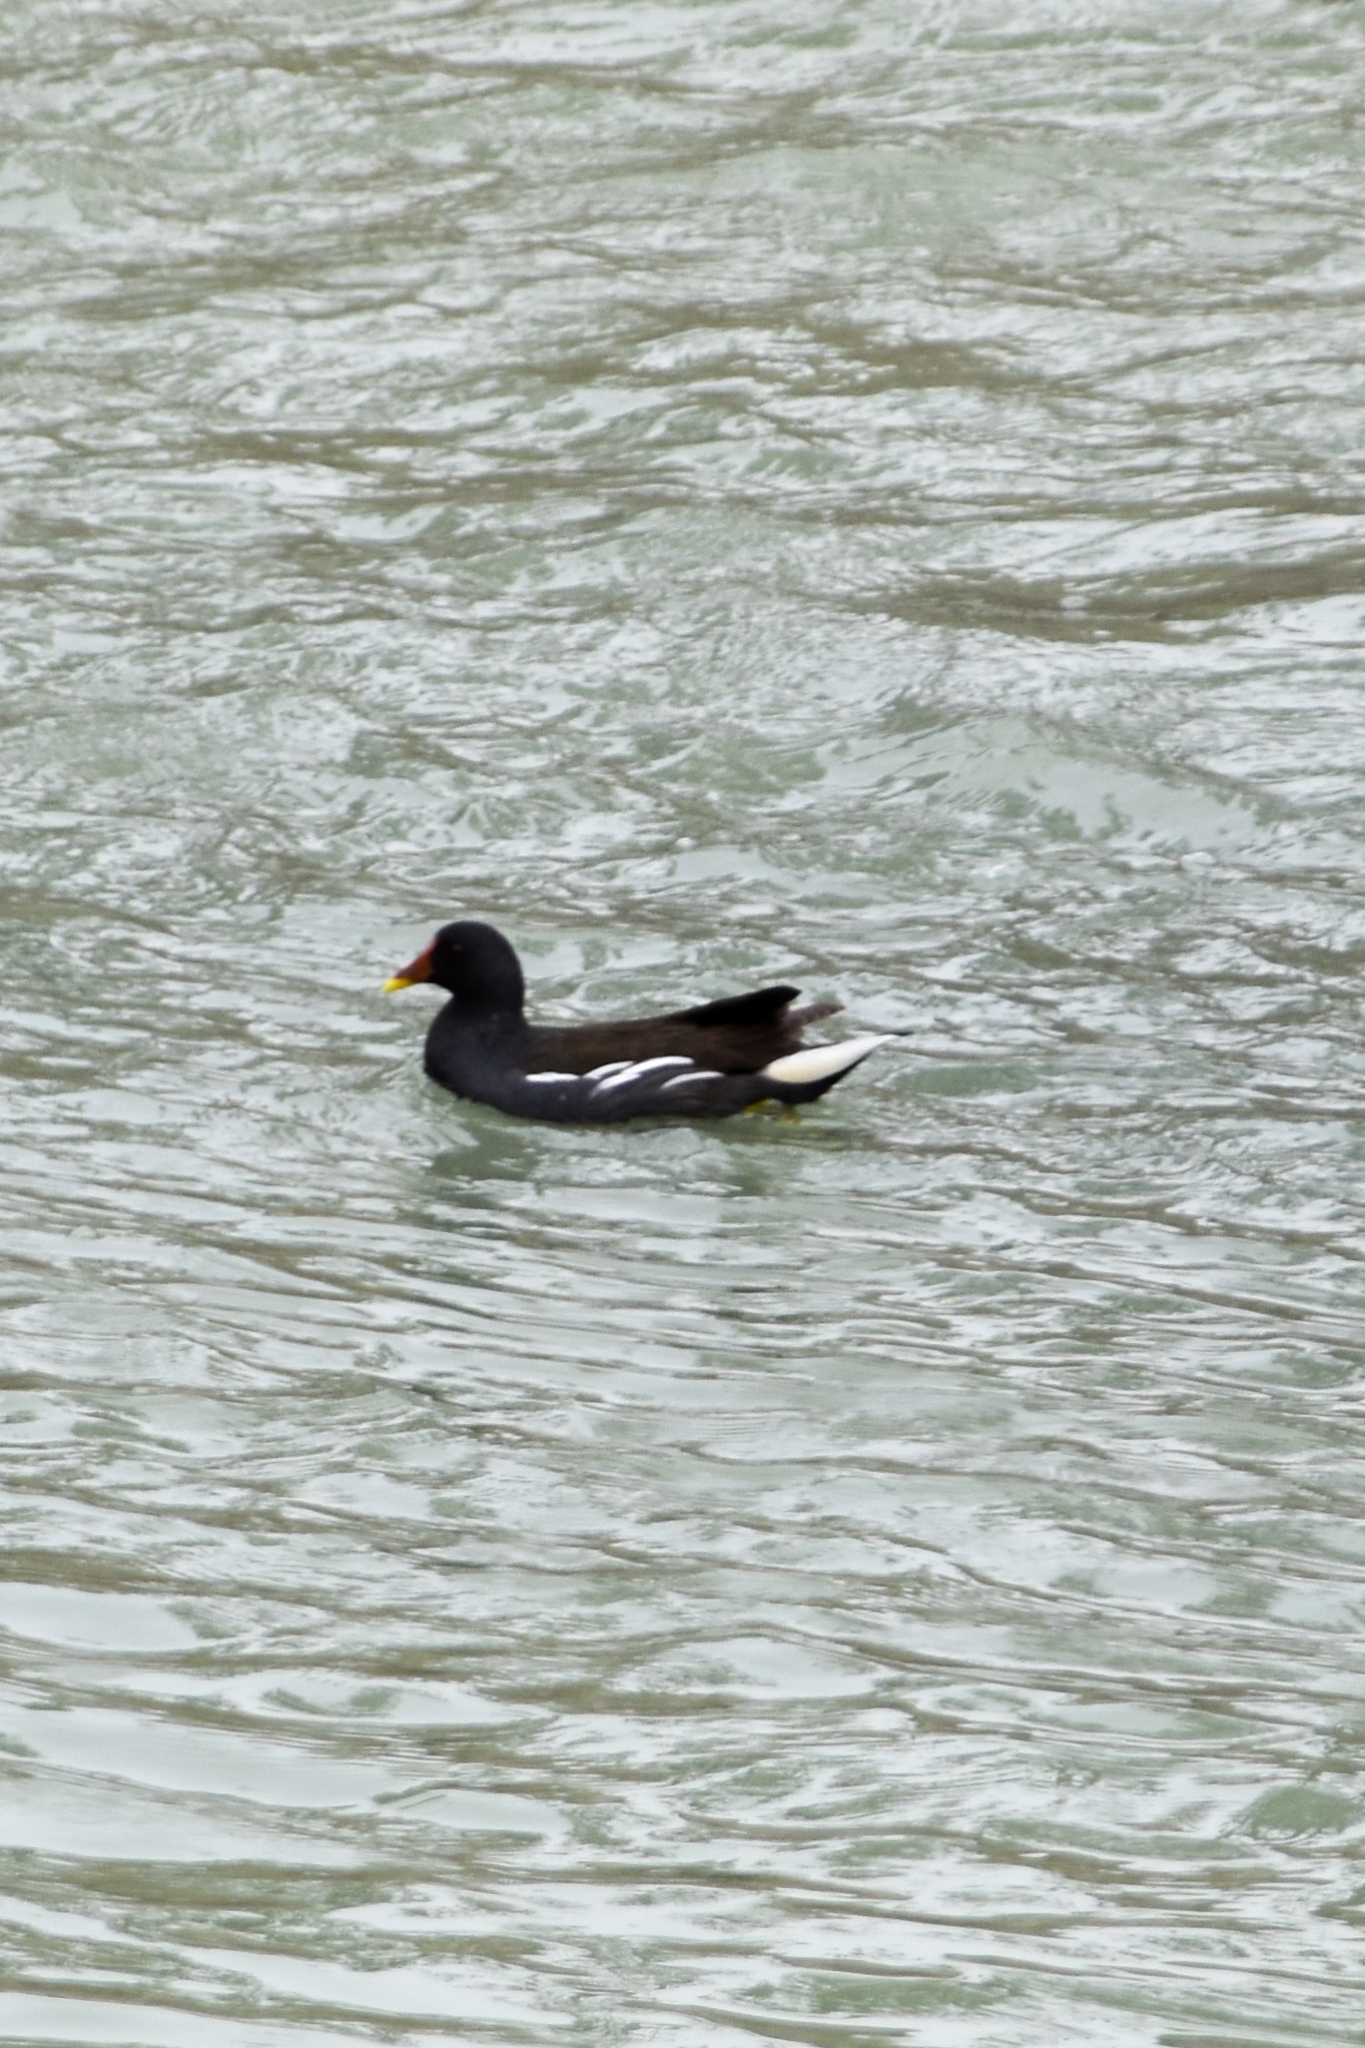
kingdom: Animalia
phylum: Chordata
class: Aves
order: Gruiformes
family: Rallidae
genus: Gallinula
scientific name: Gallinula chloropus
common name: Common moorhen
